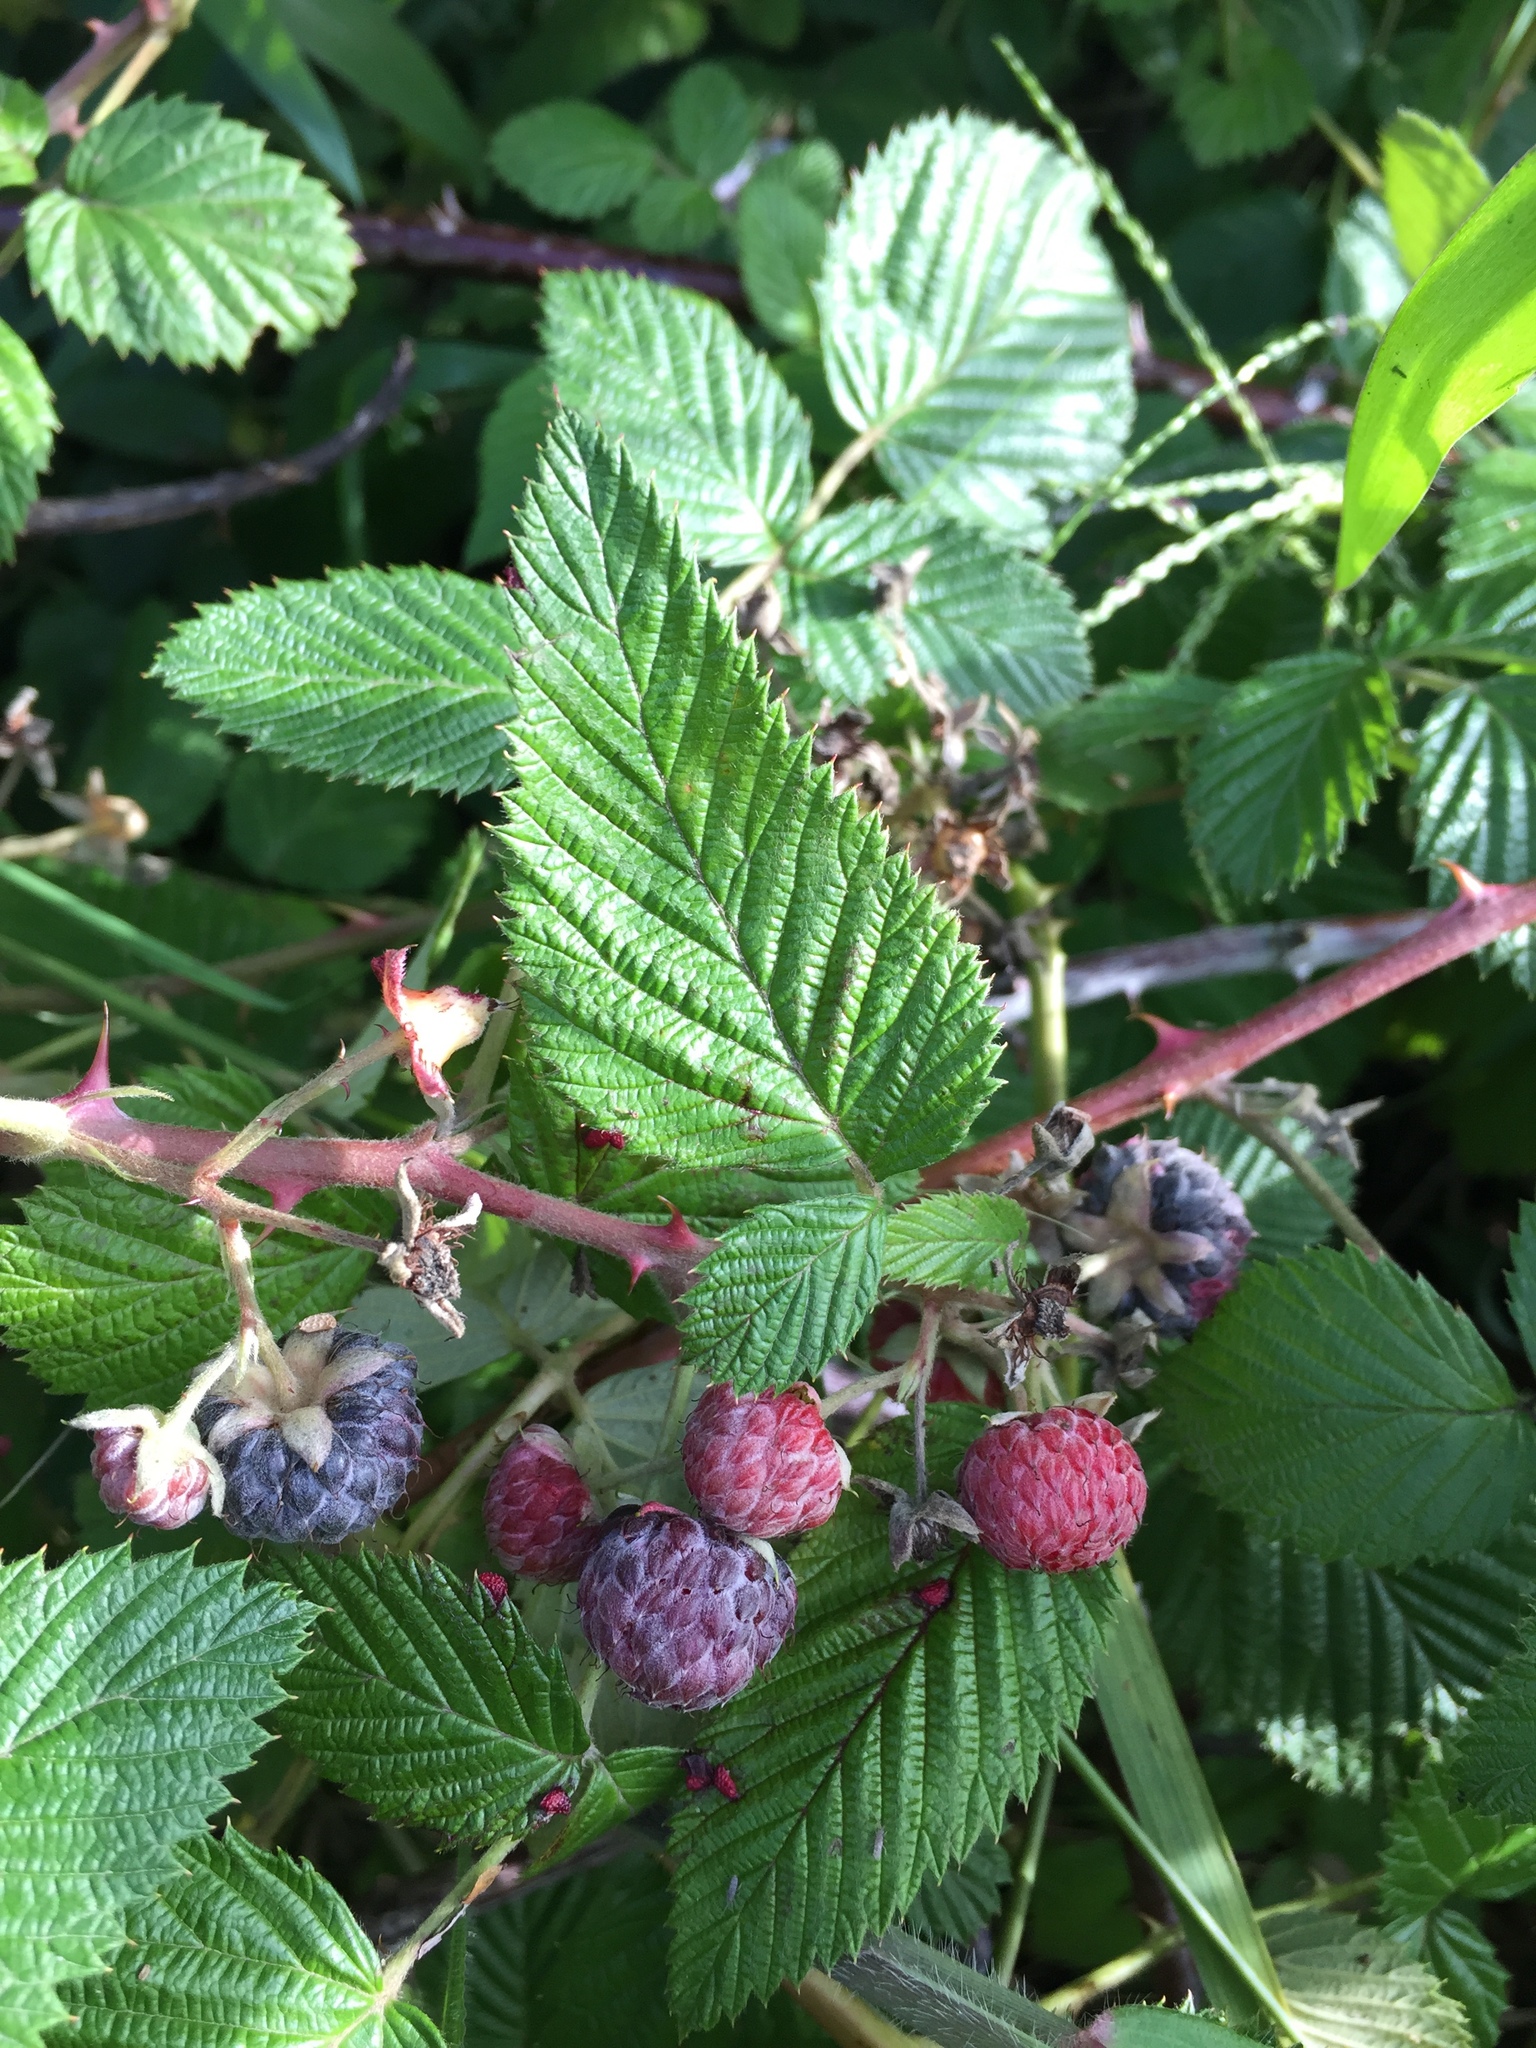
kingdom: Plantae
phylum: Tracheophyta
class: Magnoliopsida
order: Rosales
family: Rosaceae
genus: Rubus
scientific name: Rubus niveus
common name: Snowpeaks raspberry
